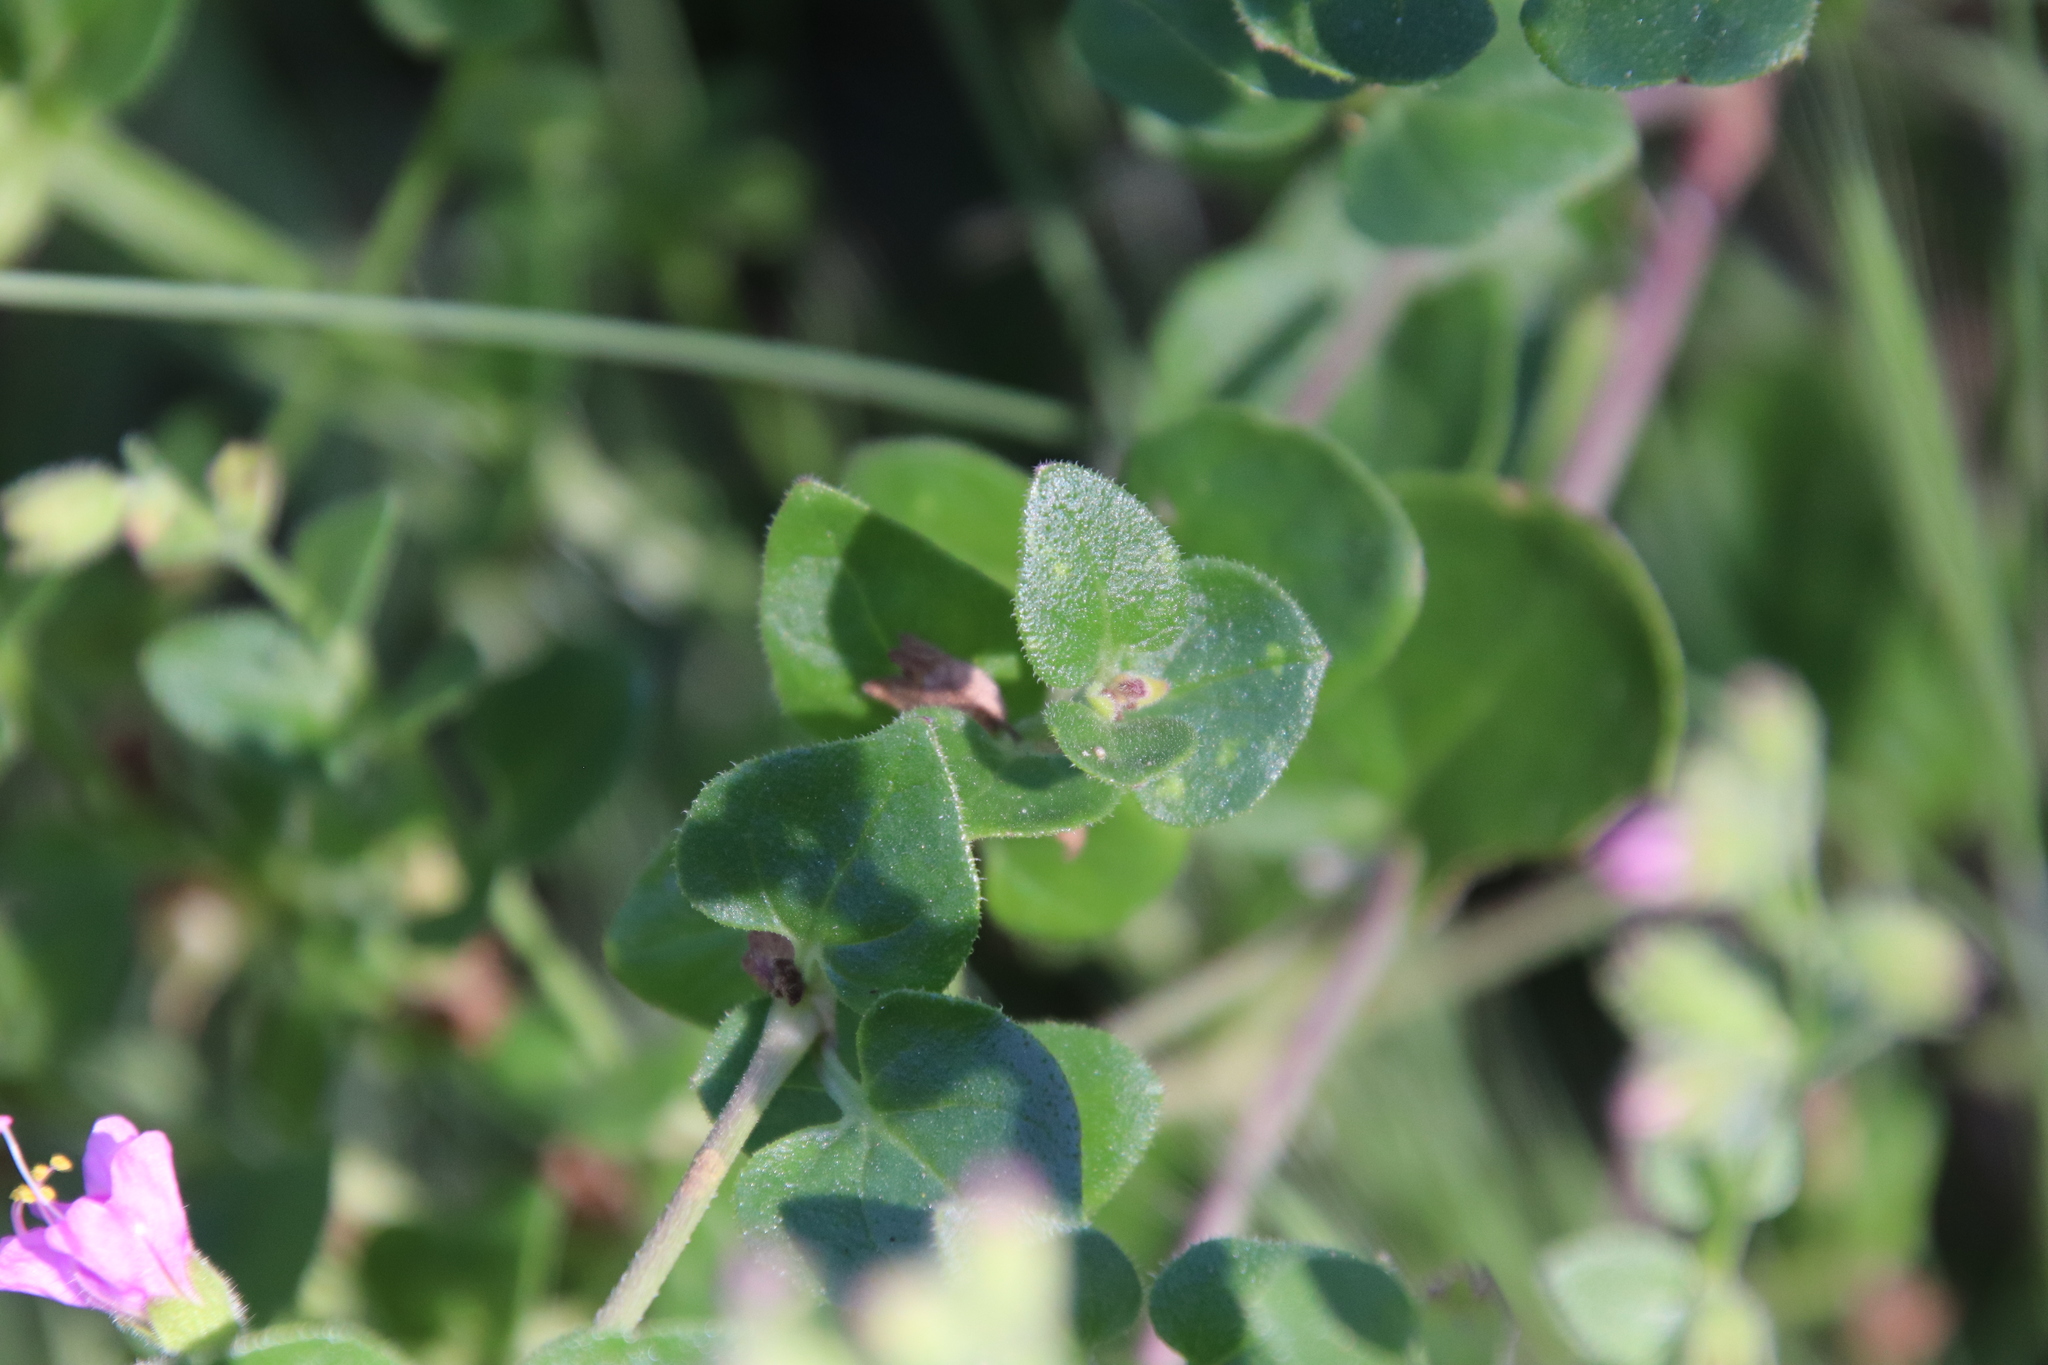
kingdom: Plantae
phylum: Tracheophyta
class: Magnoliopsida
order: Caryophyllales
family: Nyctaginaceae
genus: Mirabilis
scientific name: Mirabilis laevis
